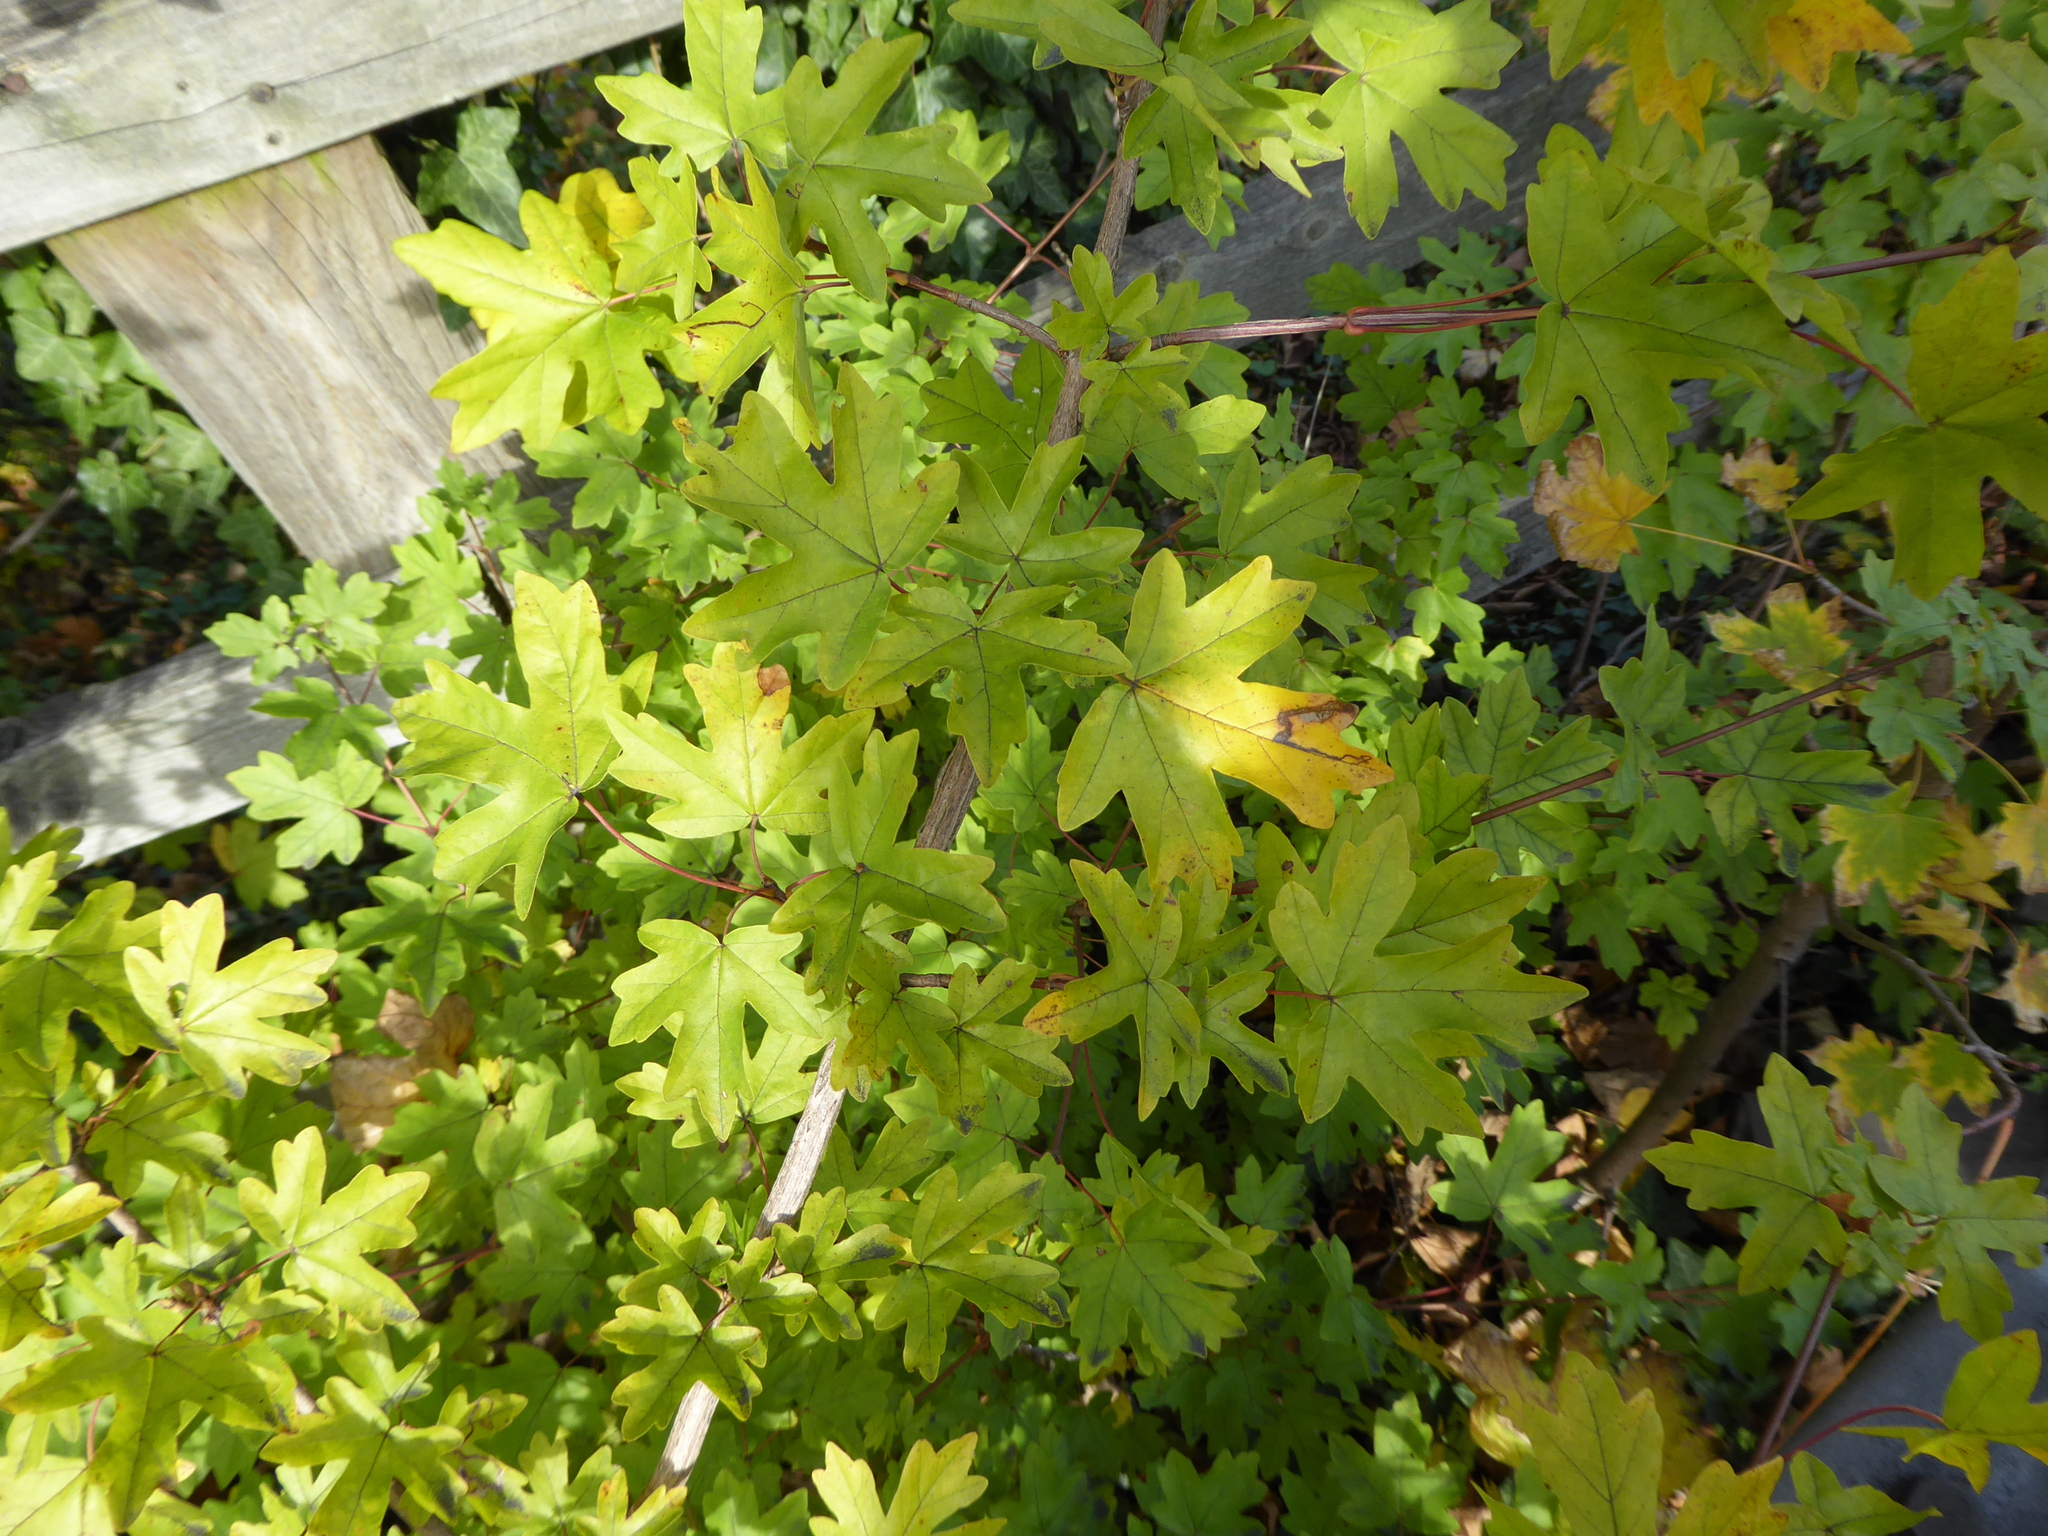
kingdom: Plantae
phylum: Tracheophyta
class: Magnoliopsida
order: Sapindales
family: Sapindaceae
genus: Acer
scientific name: Acer campestre
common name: Field maple
